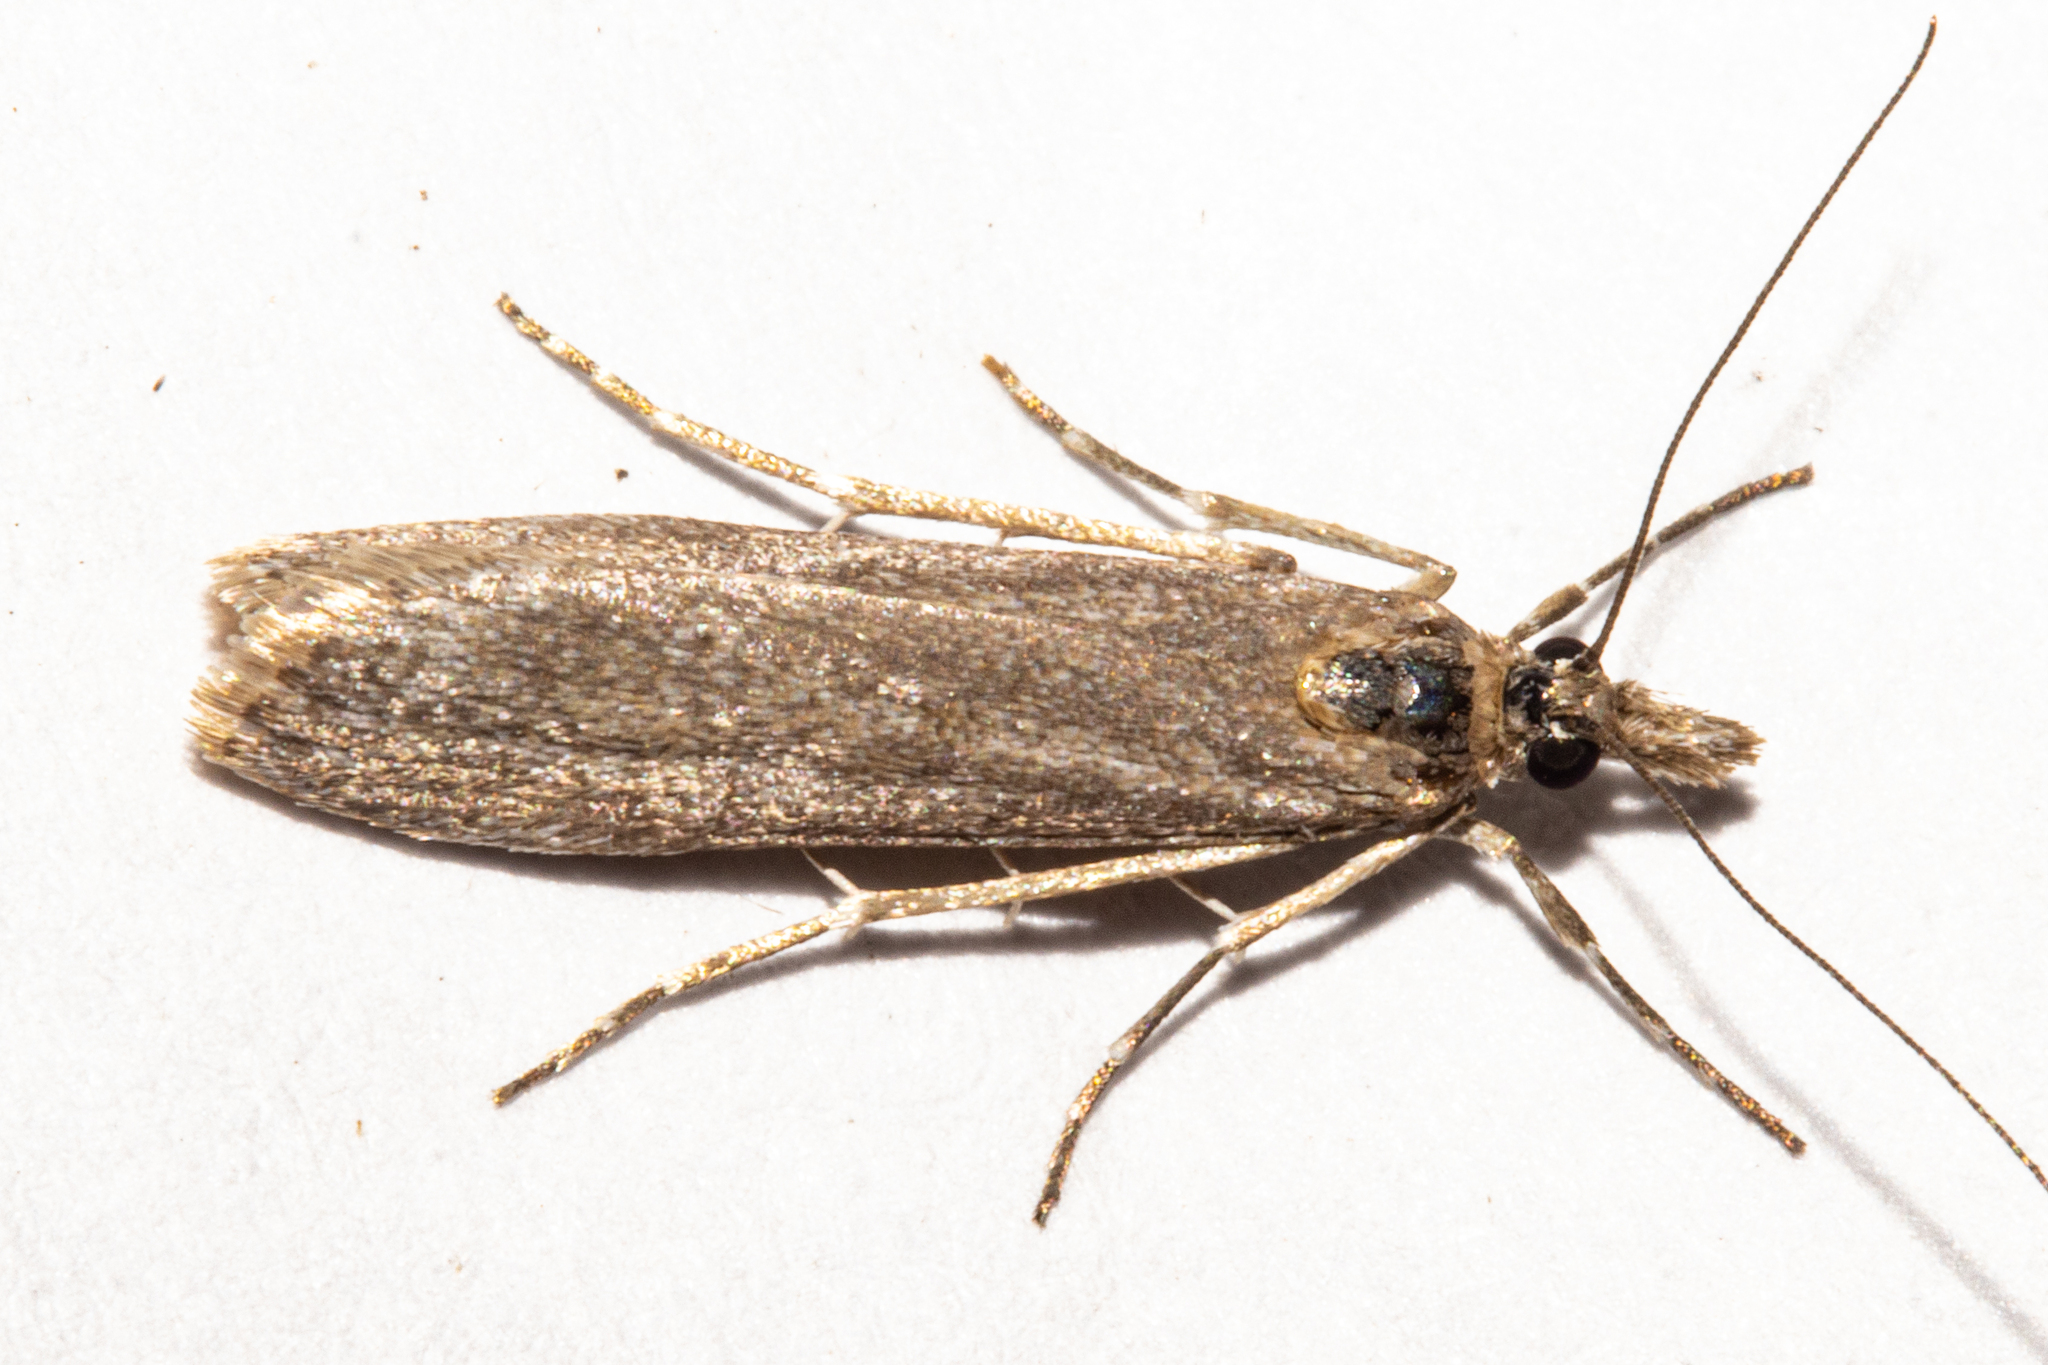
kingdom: Animalia
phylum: Arthropoda
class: Insecta
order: Lepidoptera
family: Crambidae
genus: Eudonia
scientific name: Eudonia leptalea
